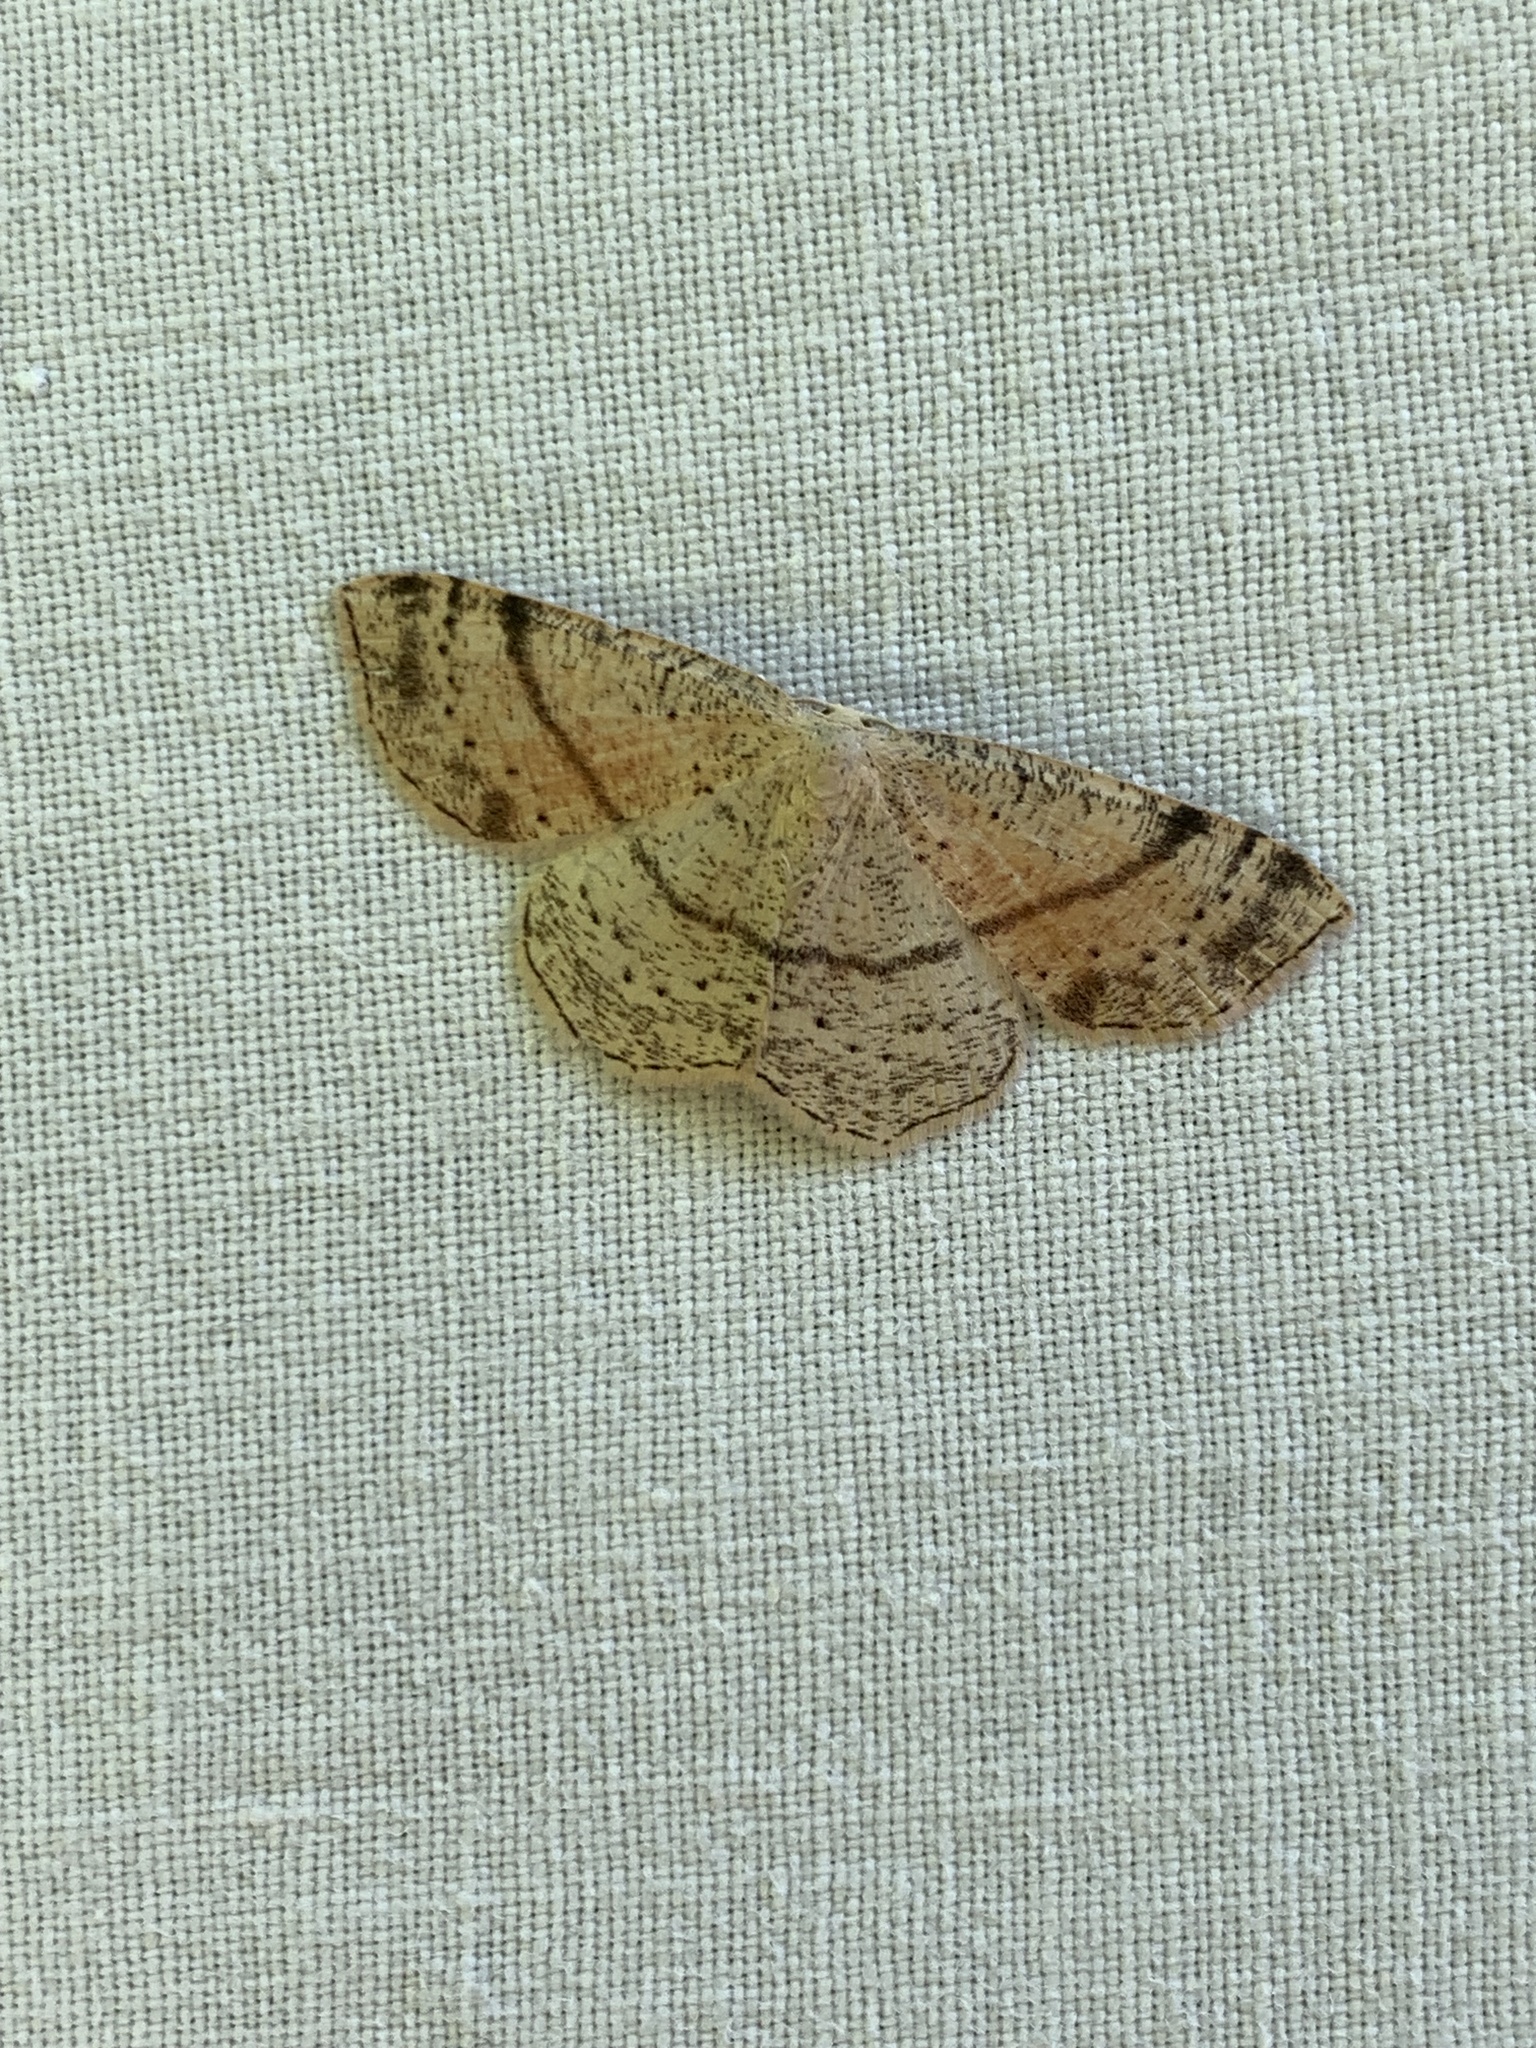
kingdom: Animalia
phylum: Arthropoda
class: Insecta
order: Lepidoptera
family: Geometridae
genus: Cyclophora
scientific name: Cyclophora punctaria
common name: Maiden's blush
